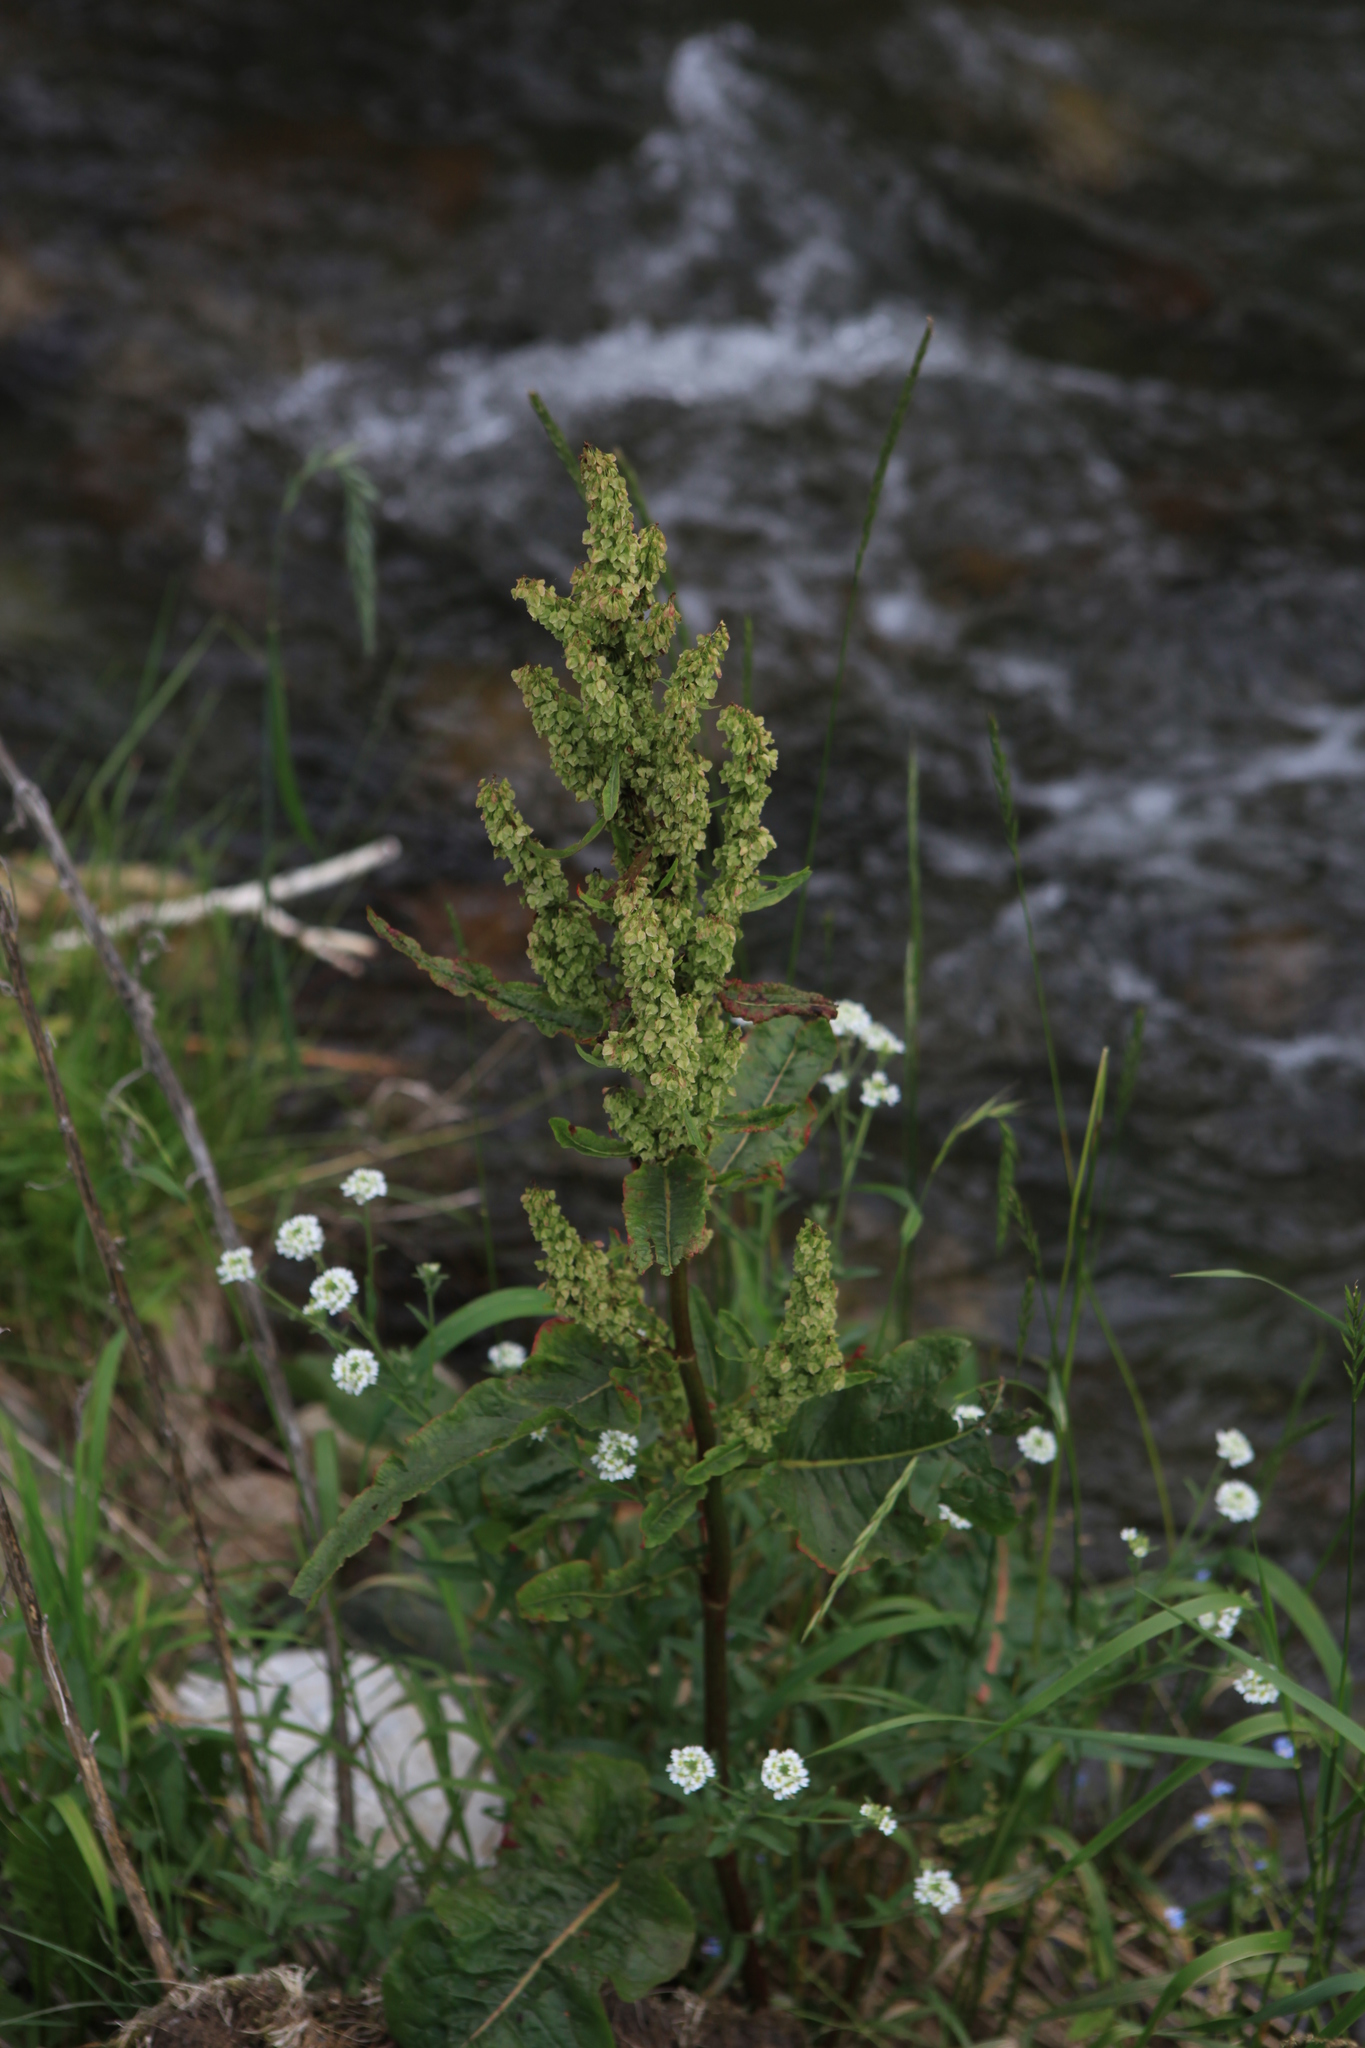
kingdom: Plantae
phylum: Tracheophyta
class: Magnoliopsida
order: Caryophyllales
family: Polygonaceae
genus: Rumex
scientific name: Rumex aquaticus
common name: Scottish dock
